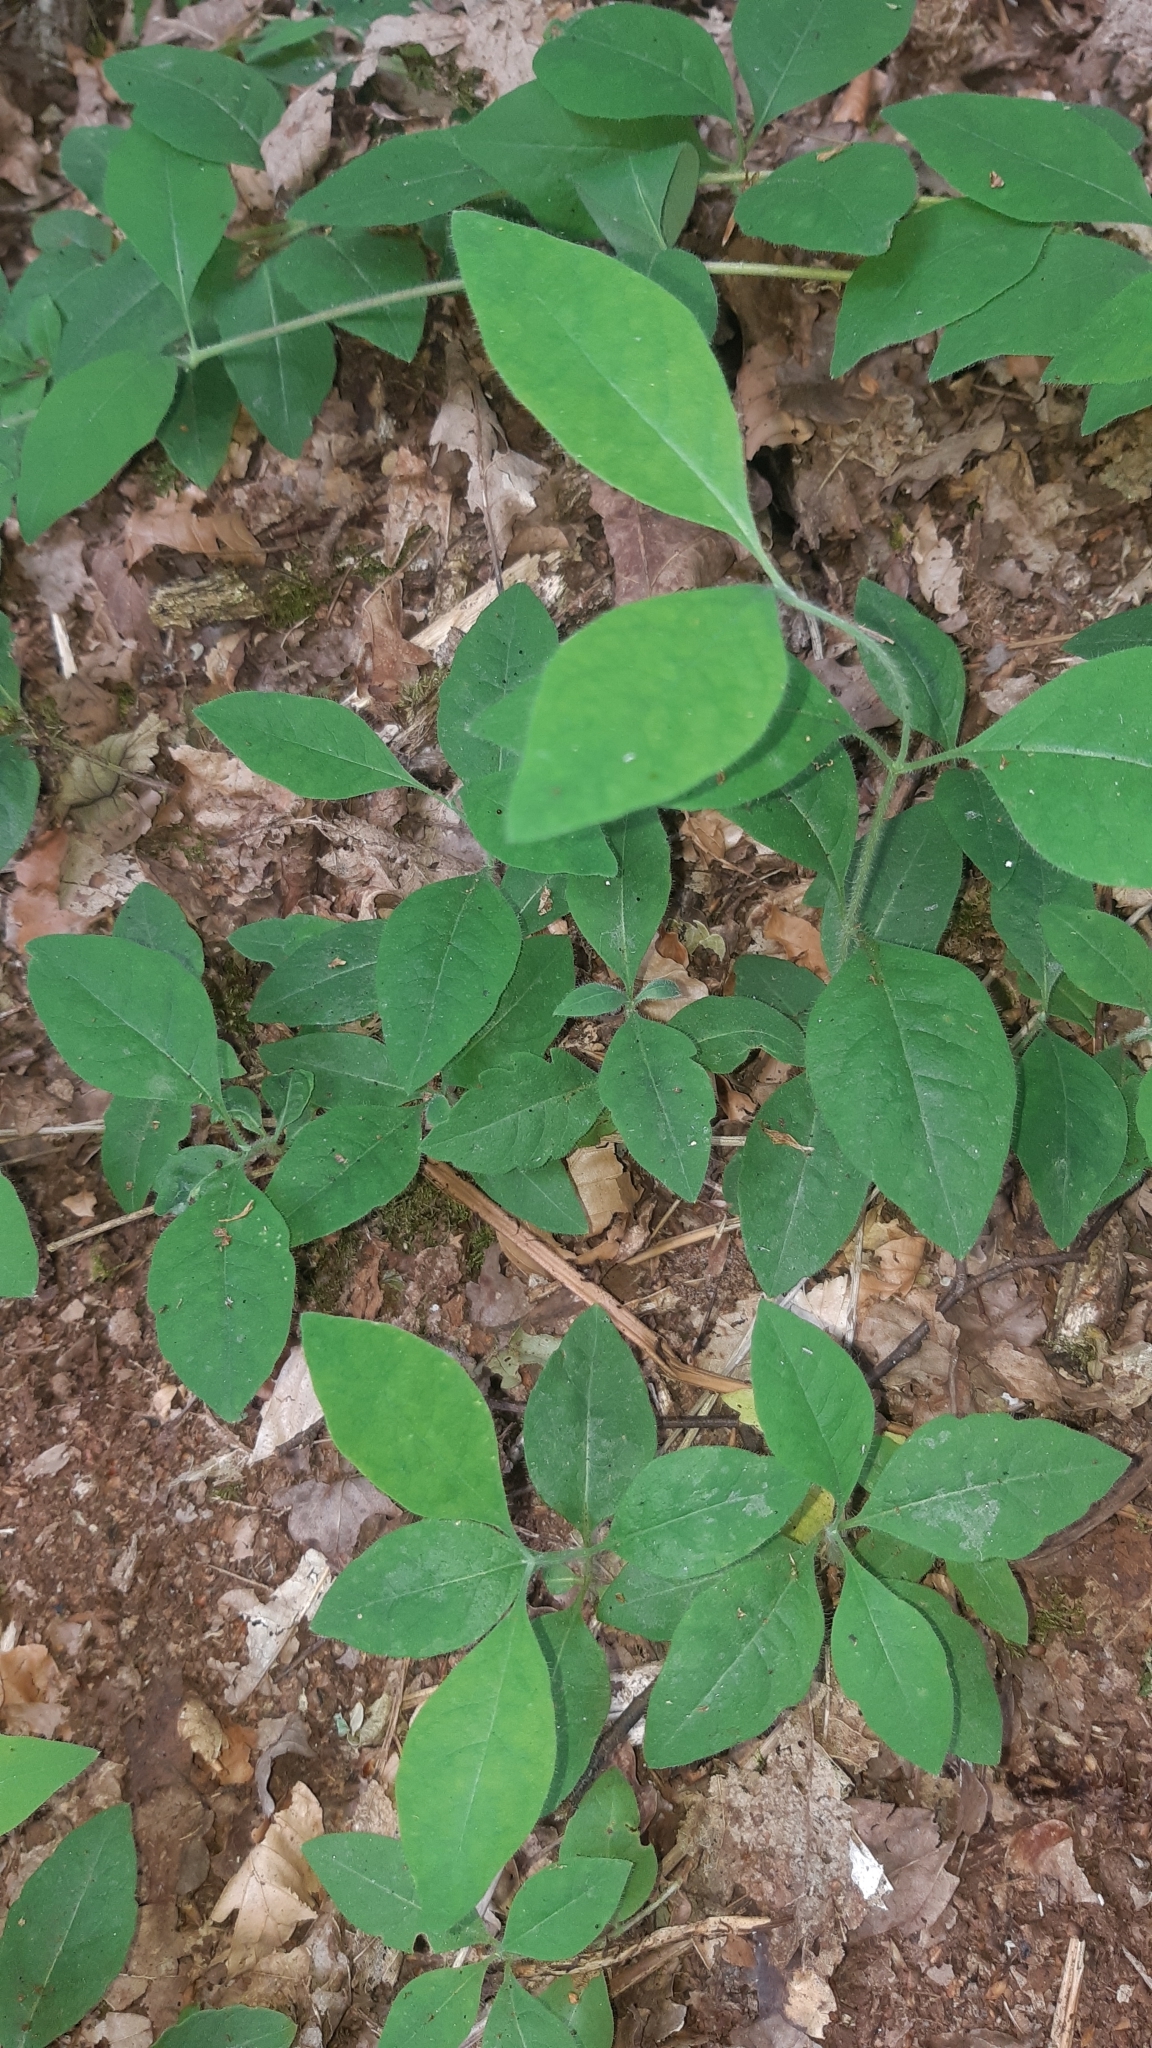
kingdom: Plantae
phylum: Tracheophyta
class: Magnoliopsida
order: Dipsacales
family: Caprifoliaceae
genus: Lonicera
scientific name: Lonicera periclymenum
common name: European honeysuckle
